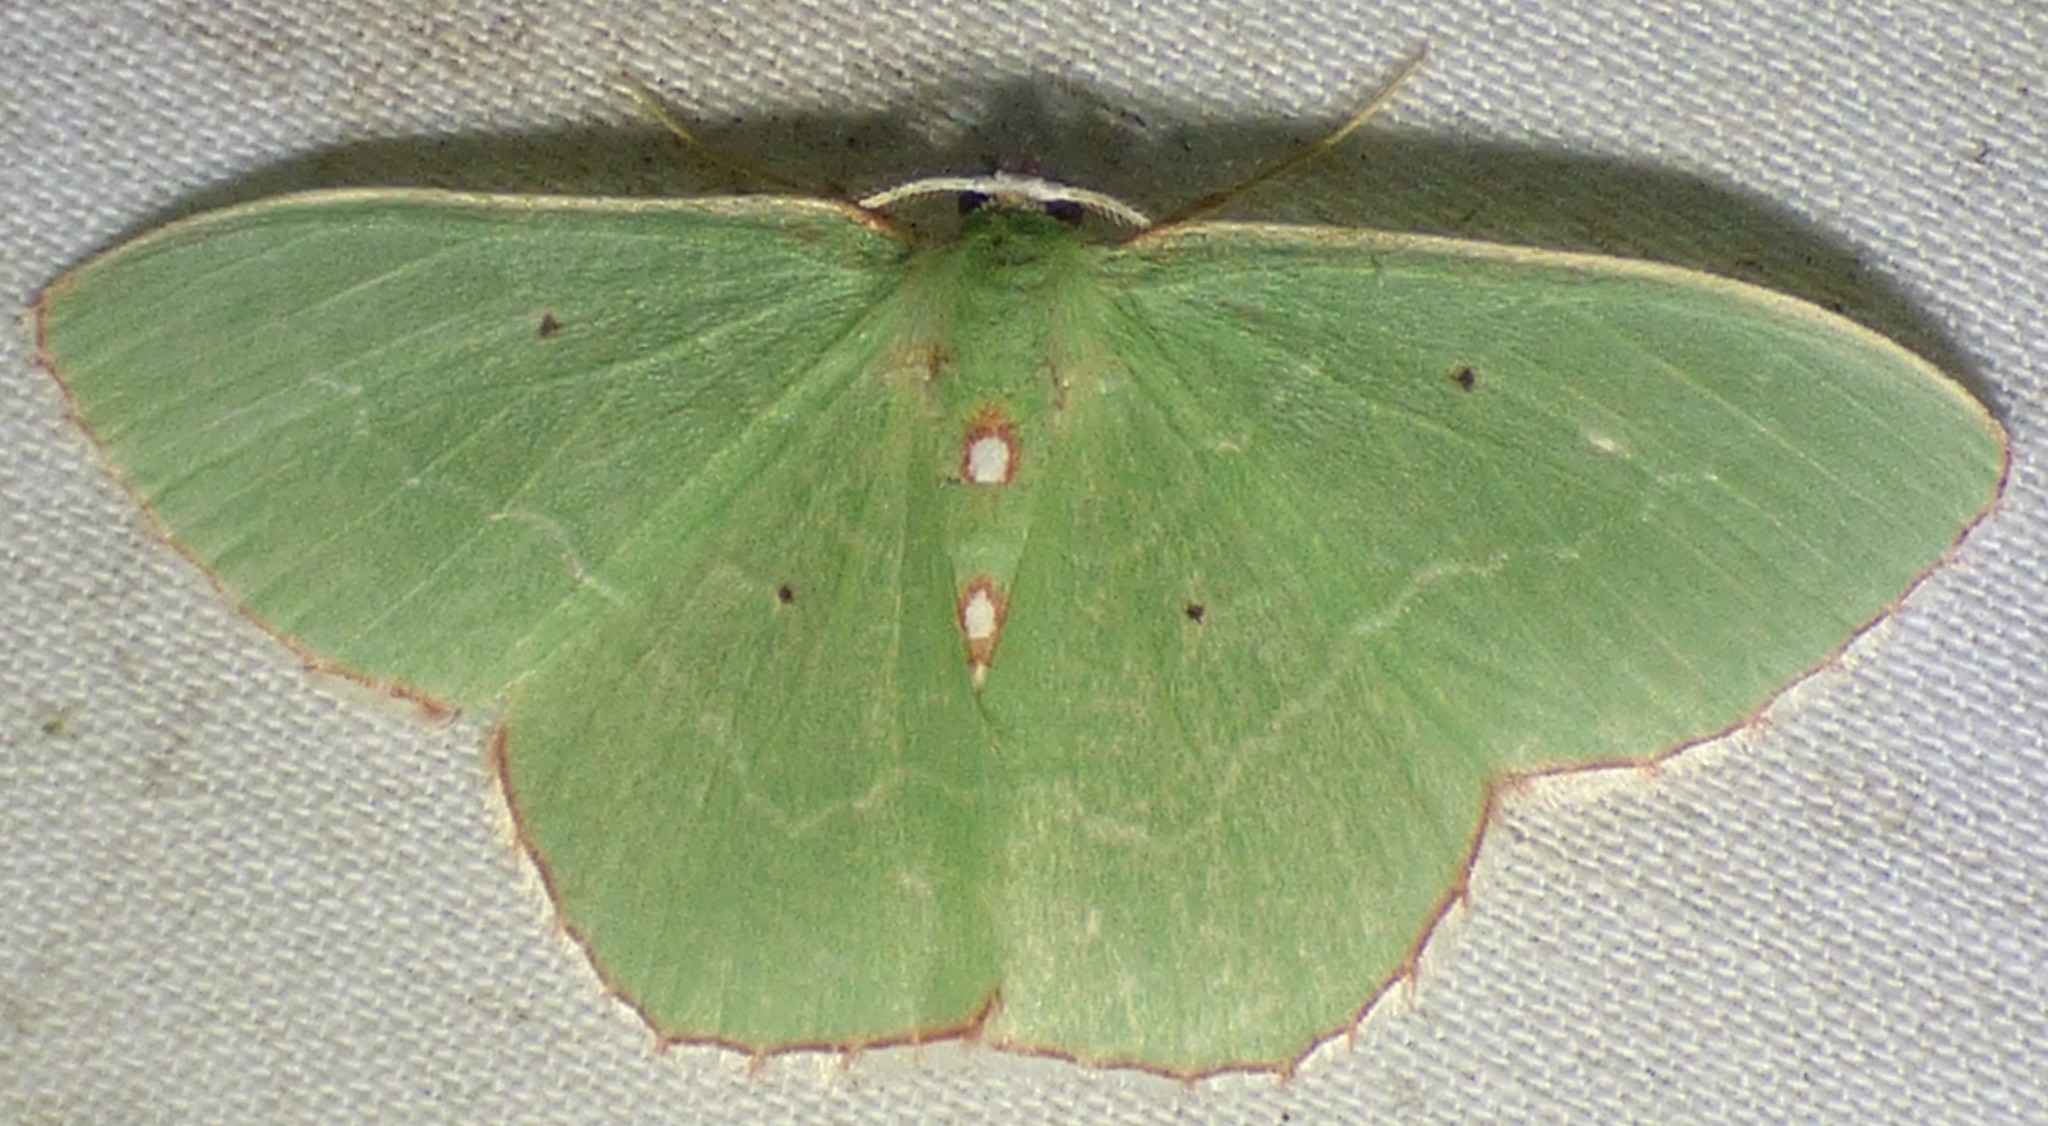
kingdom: Animalia
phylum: Arthropoda
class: Insecta
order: Lepidoptera
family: Geometridae
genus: Nemoria
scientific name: Nemoria lixaria
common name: Red-bordered emerald
